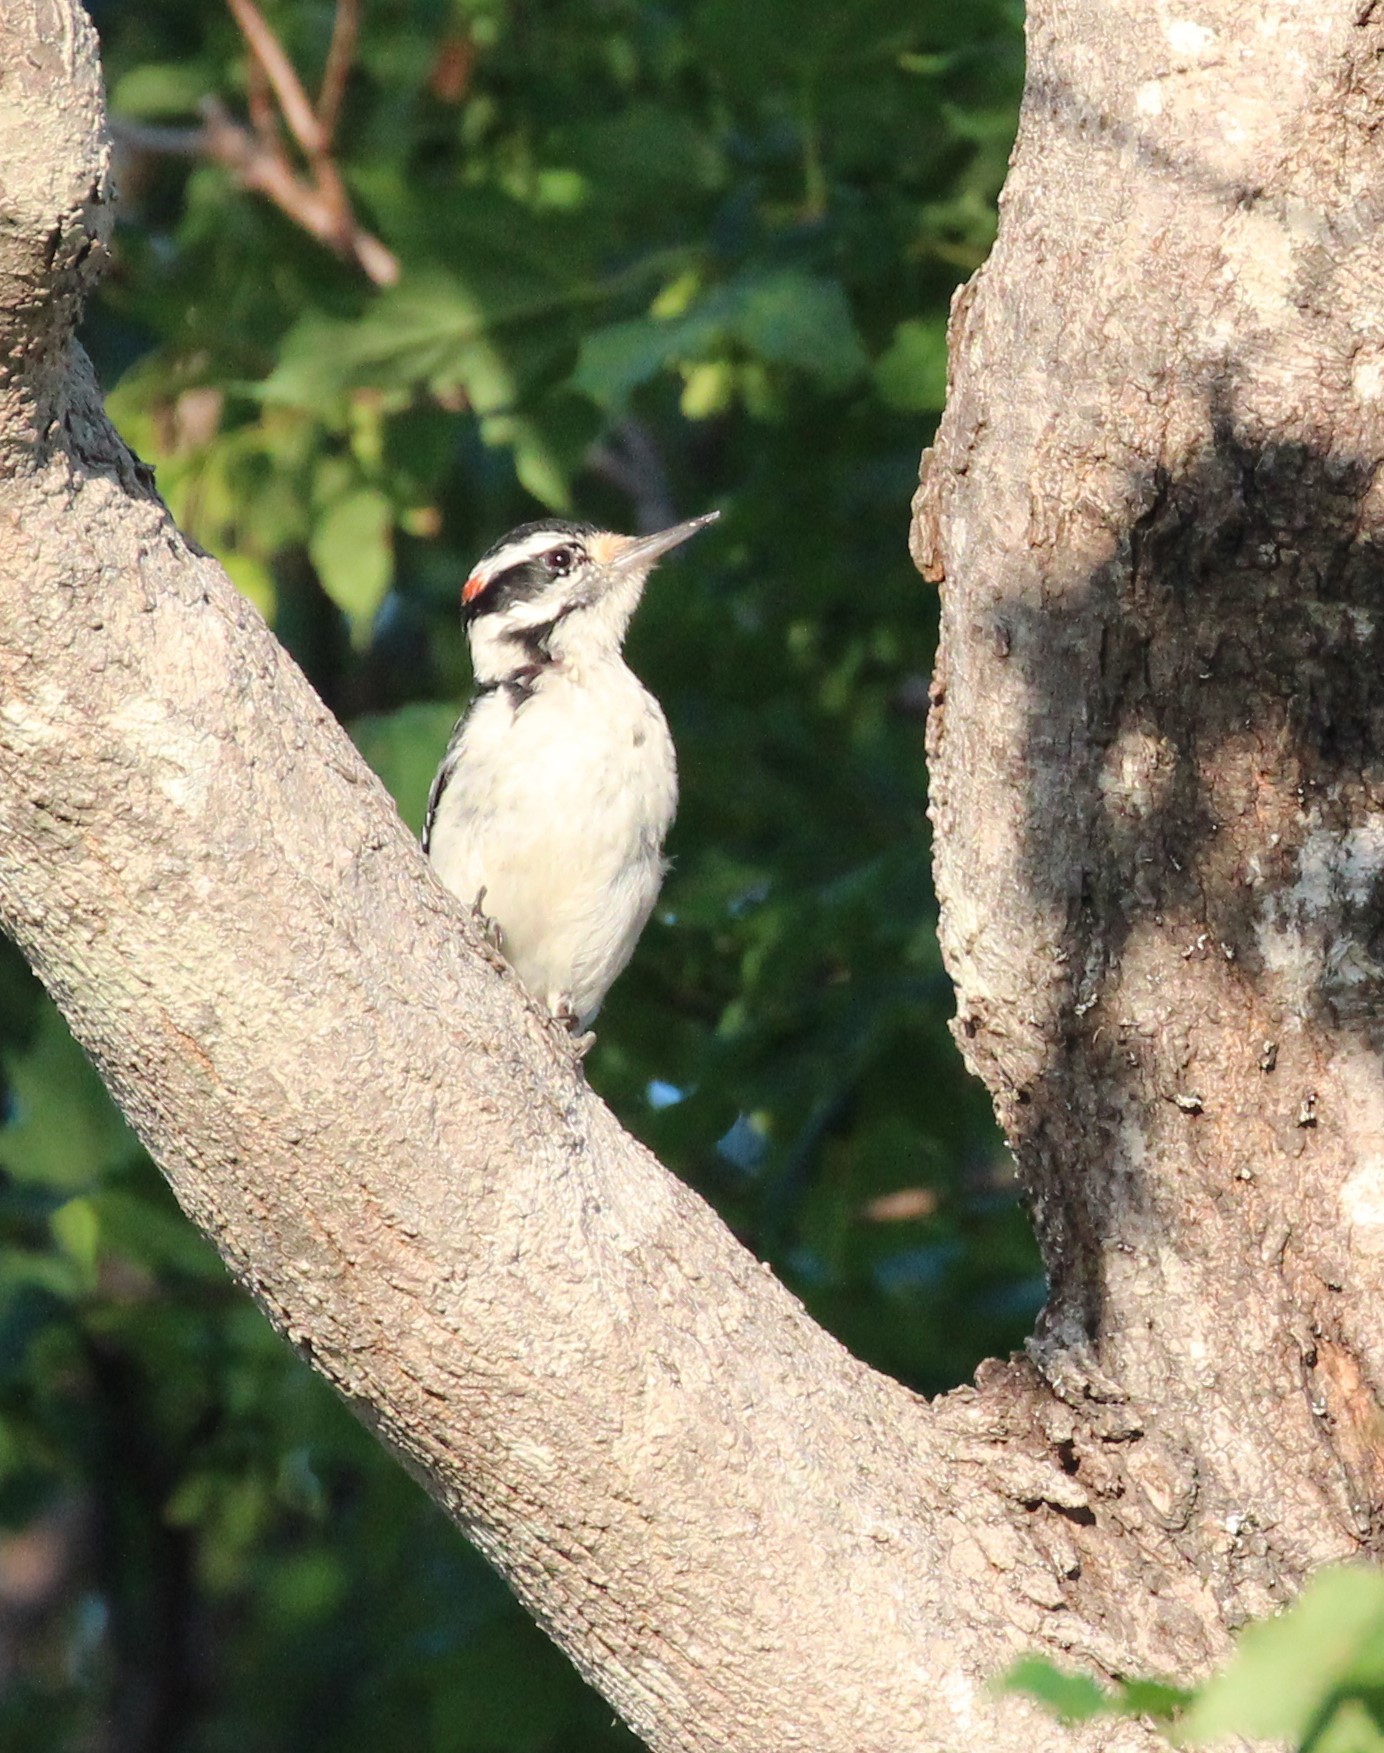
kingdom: Animalia
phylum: Chordata
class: Aves
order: Piciformes
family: Picidae
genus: Leuconotopicus
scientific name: Leuconotopicus villosus
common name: Hairy woodpecker
